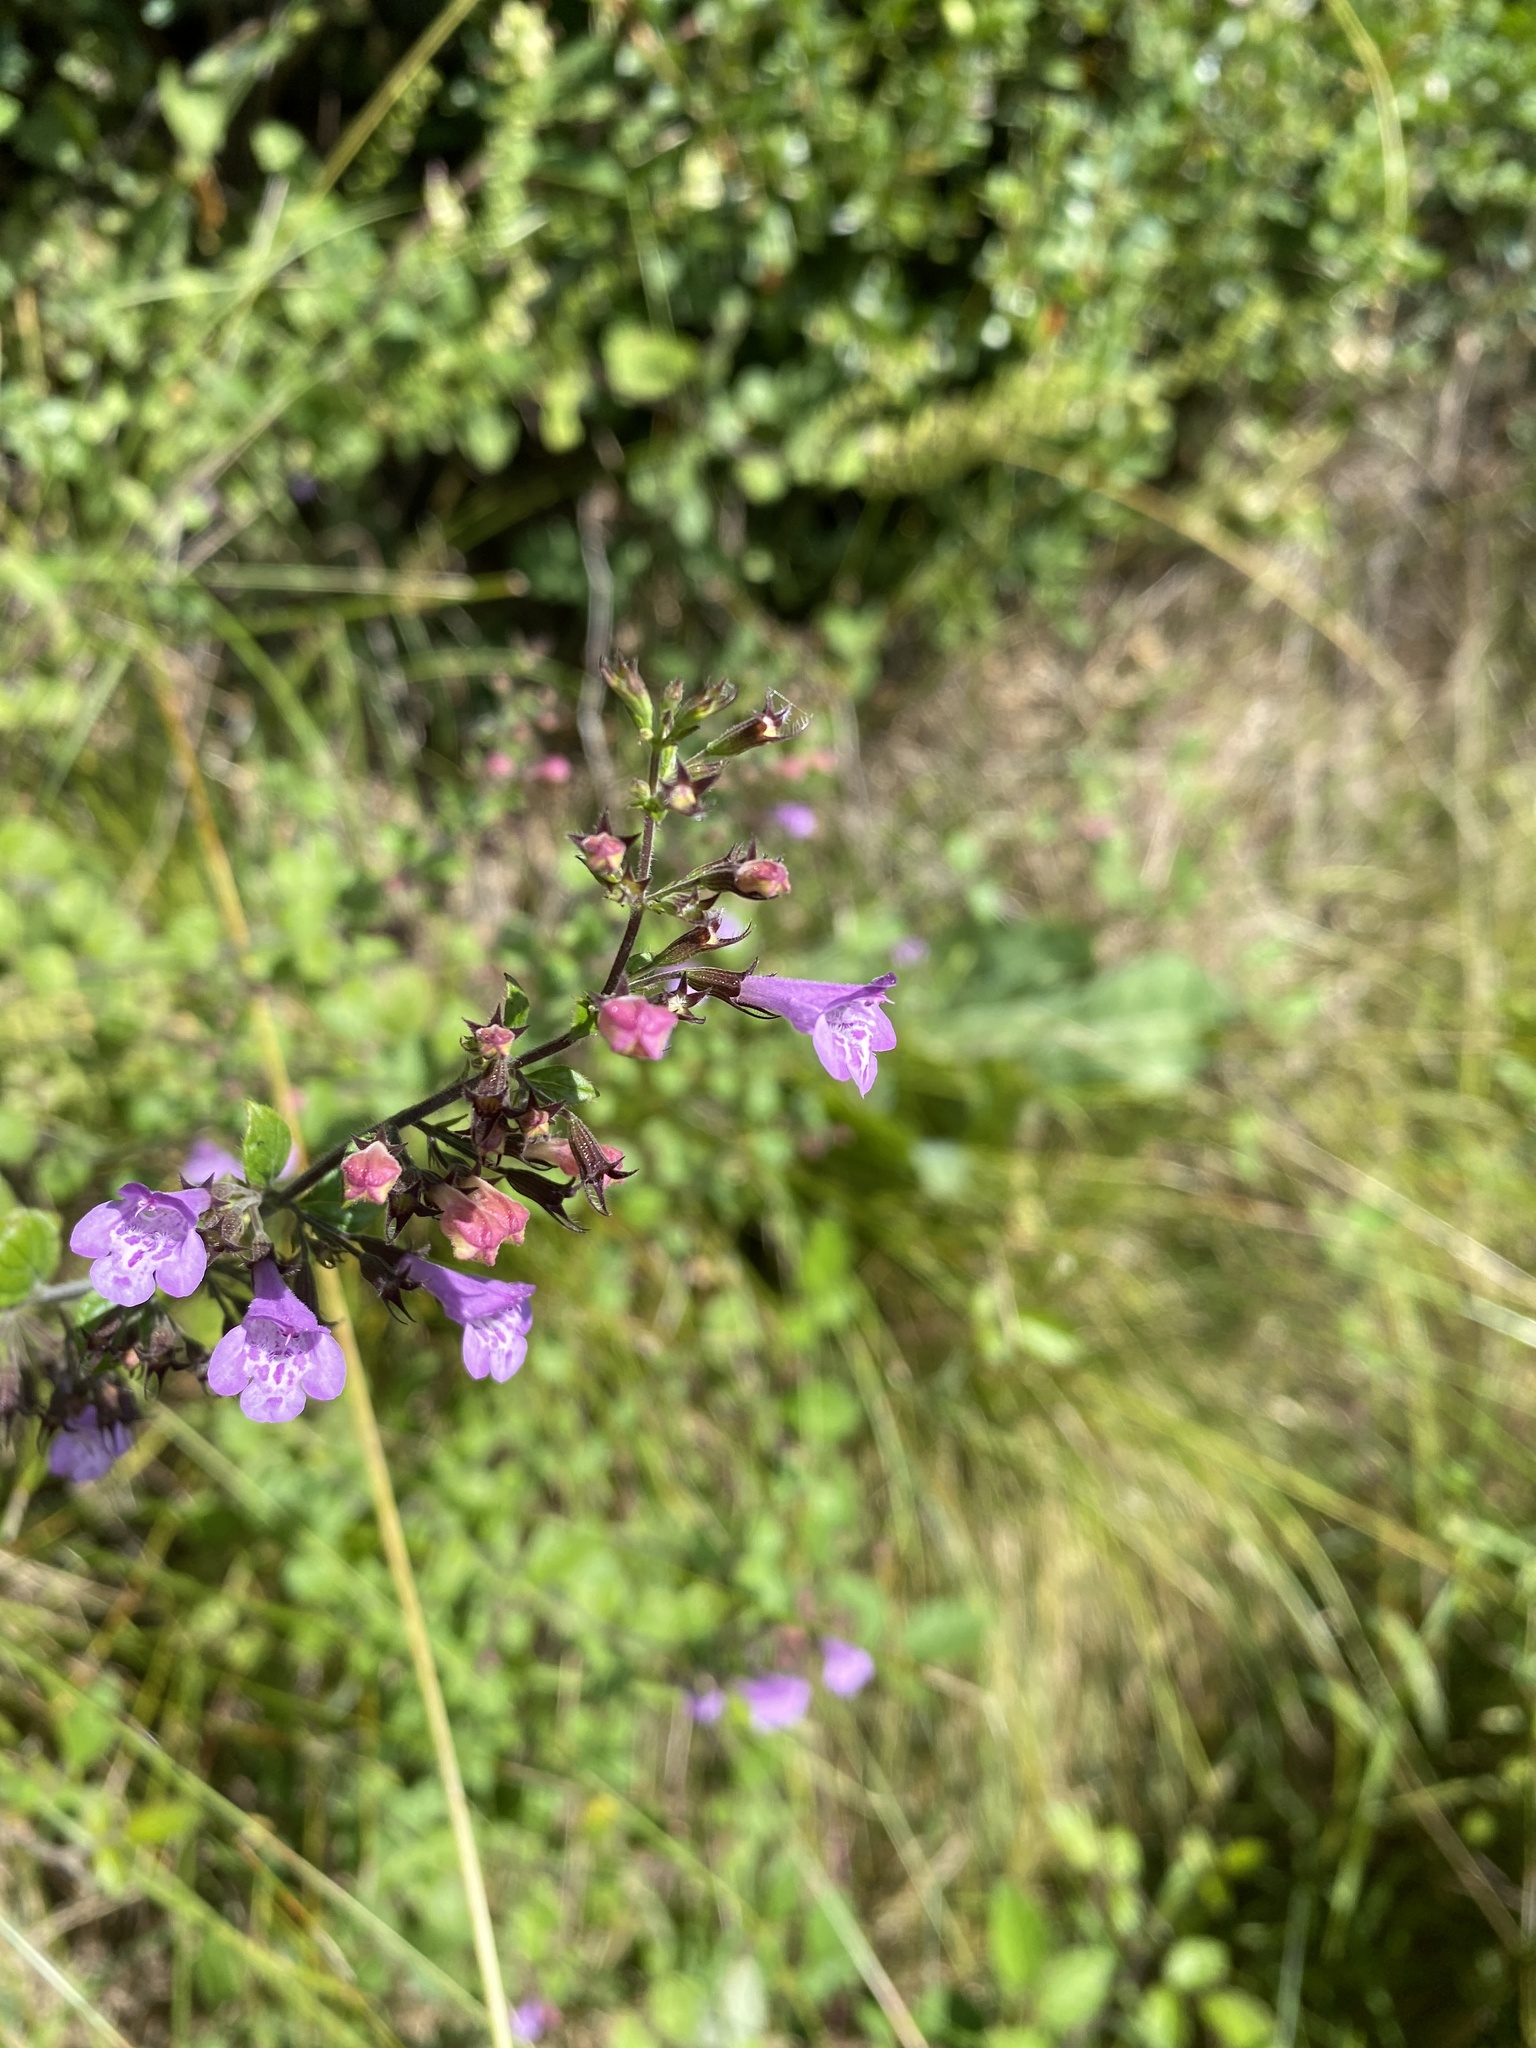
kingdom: Plantae
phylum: Tracheophyta
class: Magnoliopsida
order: Lamiales
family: Lamiaceae
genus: Clinopodium
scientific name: Clinopodium menthifolium
